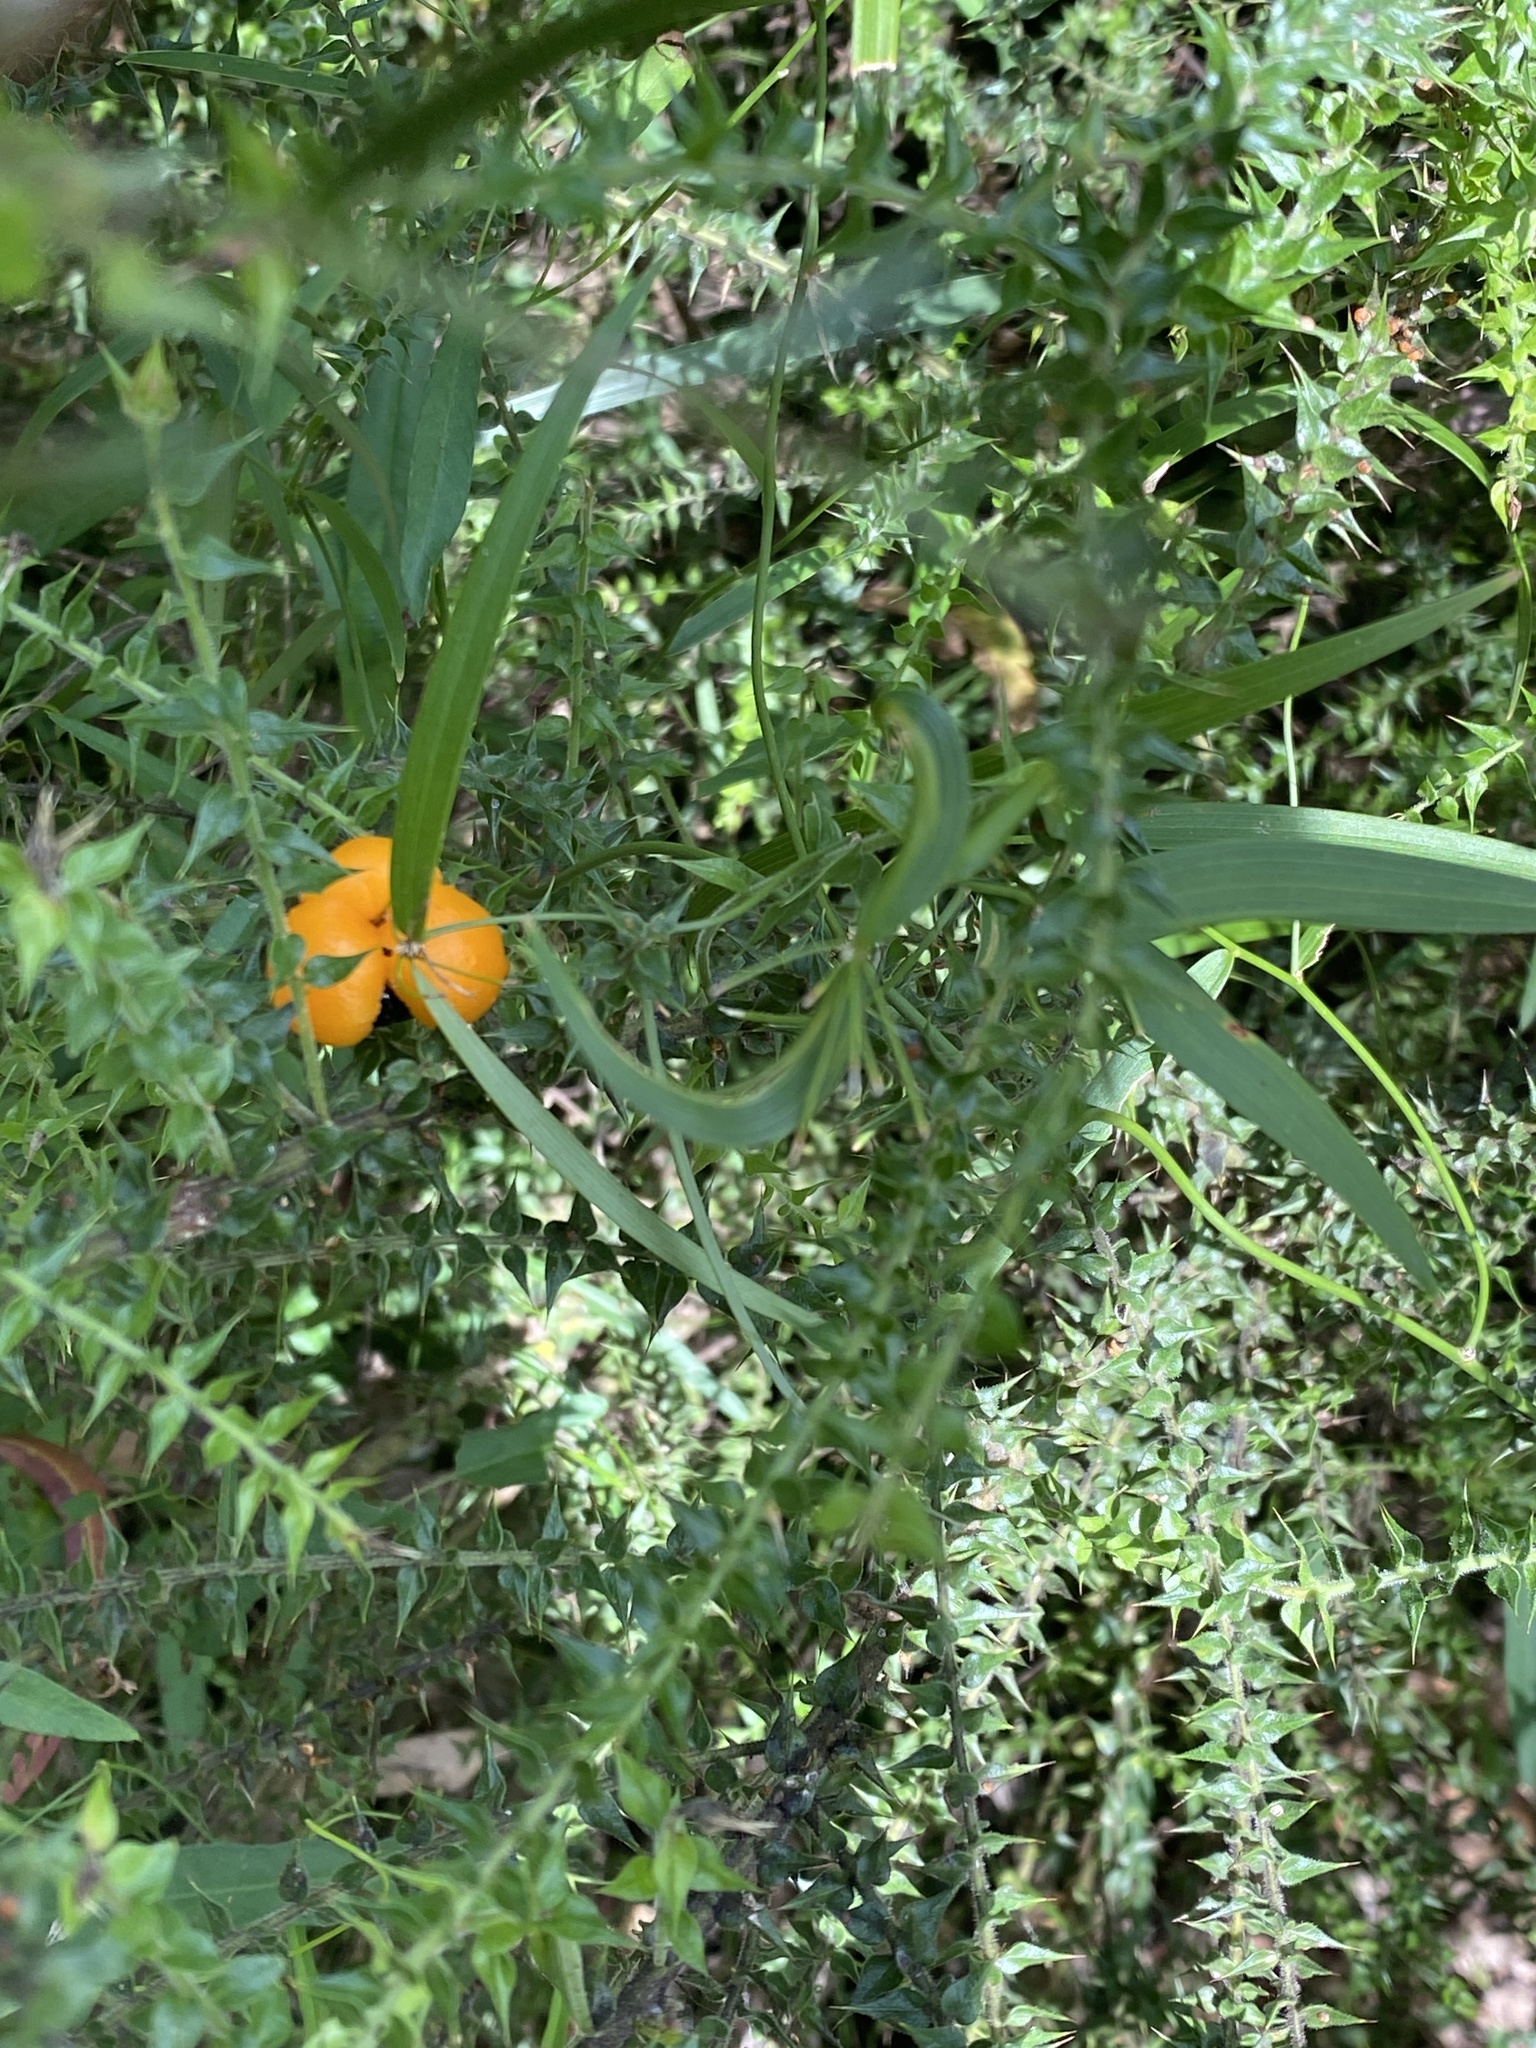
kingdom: Plantae
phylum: Tracheophyta
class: Liliopsida
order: Asparagales
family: Asparagaceae
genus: Eustrephus
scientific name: Eustrephus latifolius
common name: Orangevine
